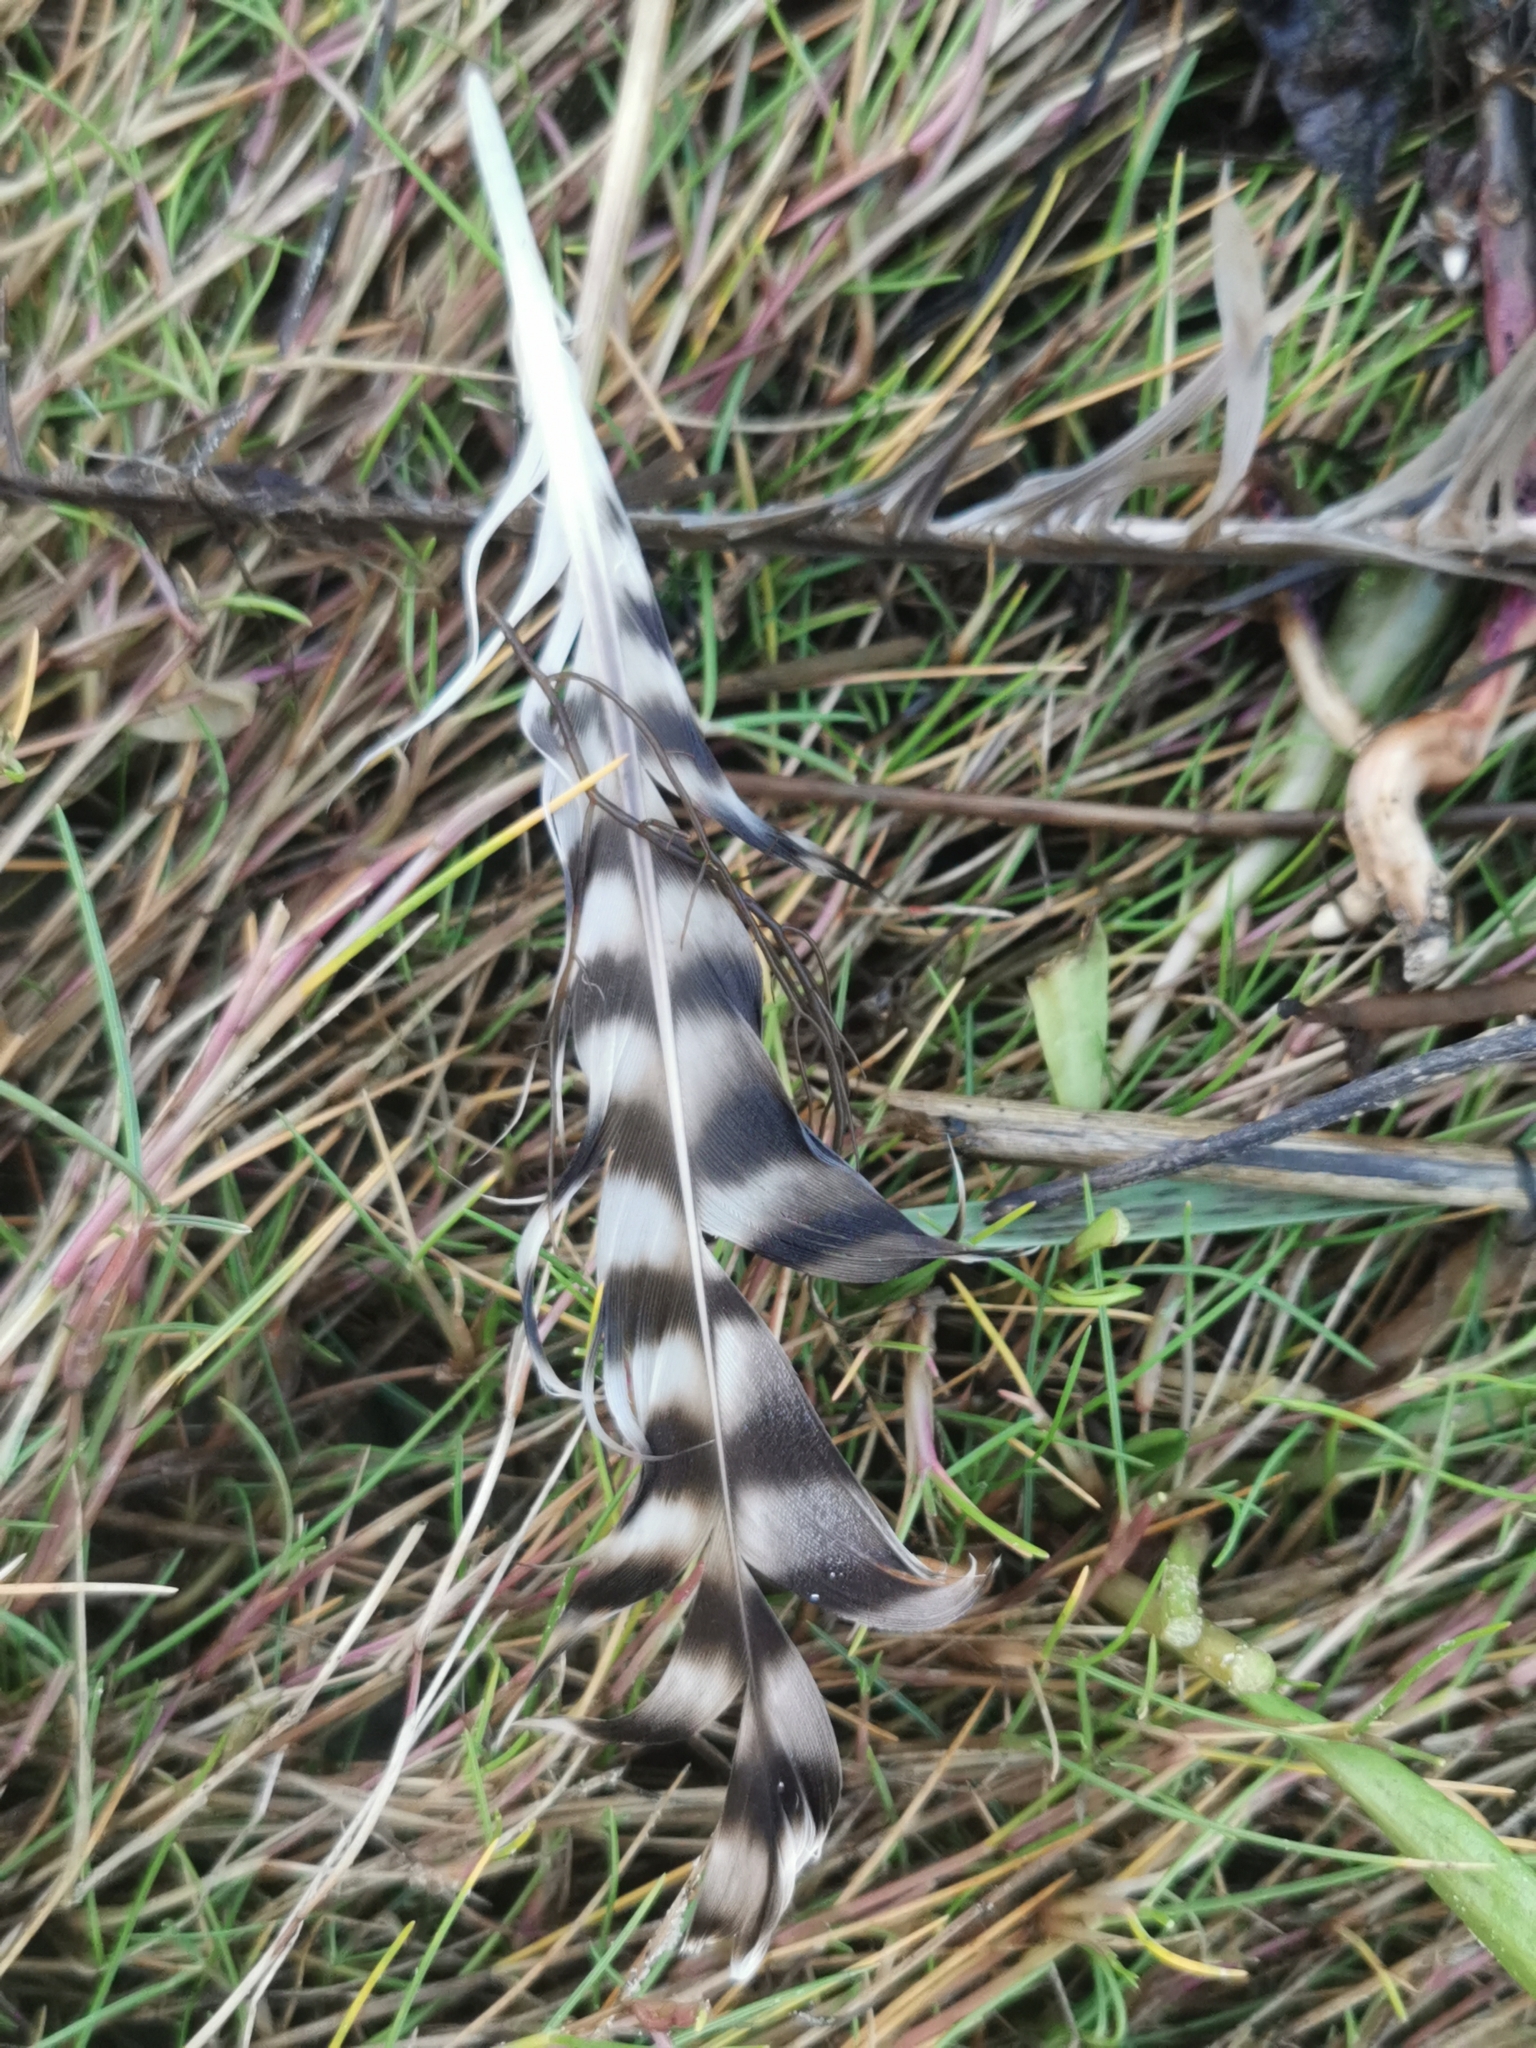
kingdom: Animalia
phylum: Chordata
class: Aves
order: Charadriiformes
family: Scolopacidae
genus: Numenius
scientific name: Numenius arquata
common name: Eurasian curlew
